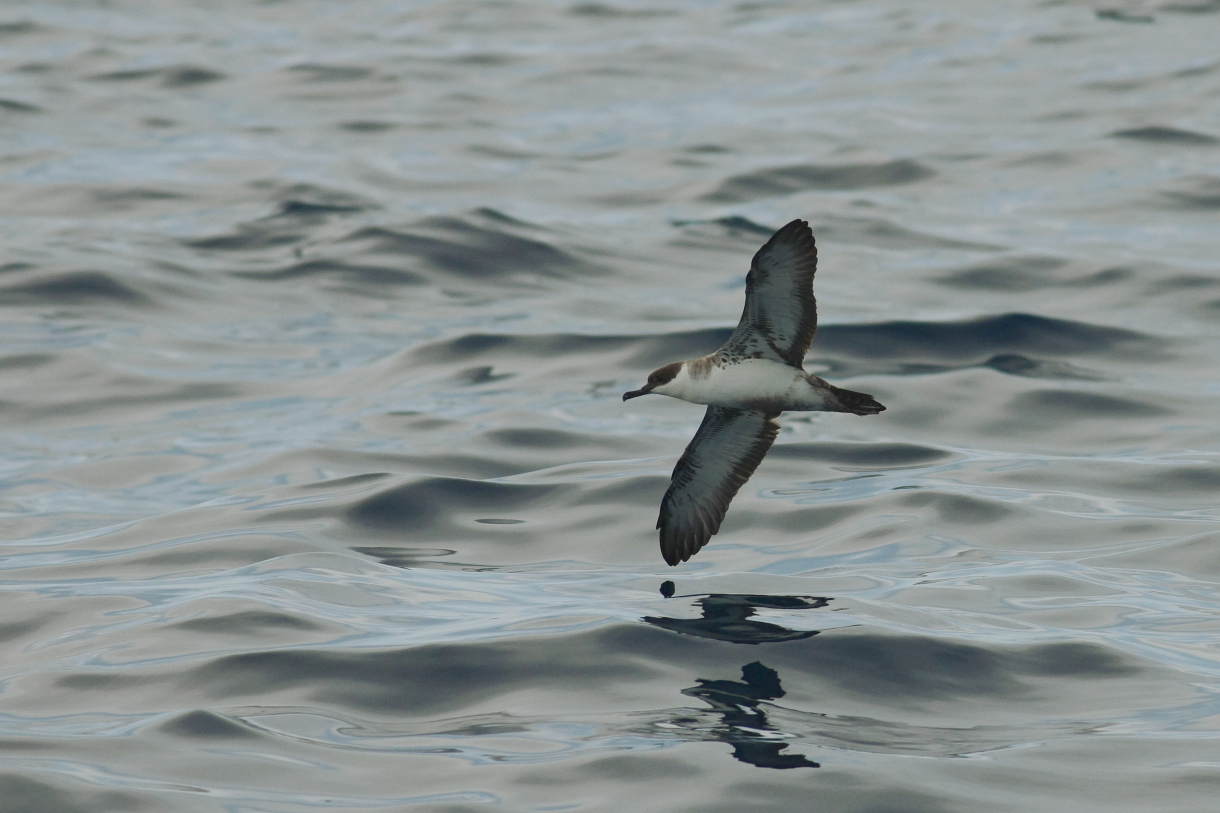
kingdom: Animalia
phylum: Chordata
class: Aves
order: Procellariiformes
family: Procellariidae
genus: Puffinus
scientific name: Puffinus gravis
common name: Great shearwater
